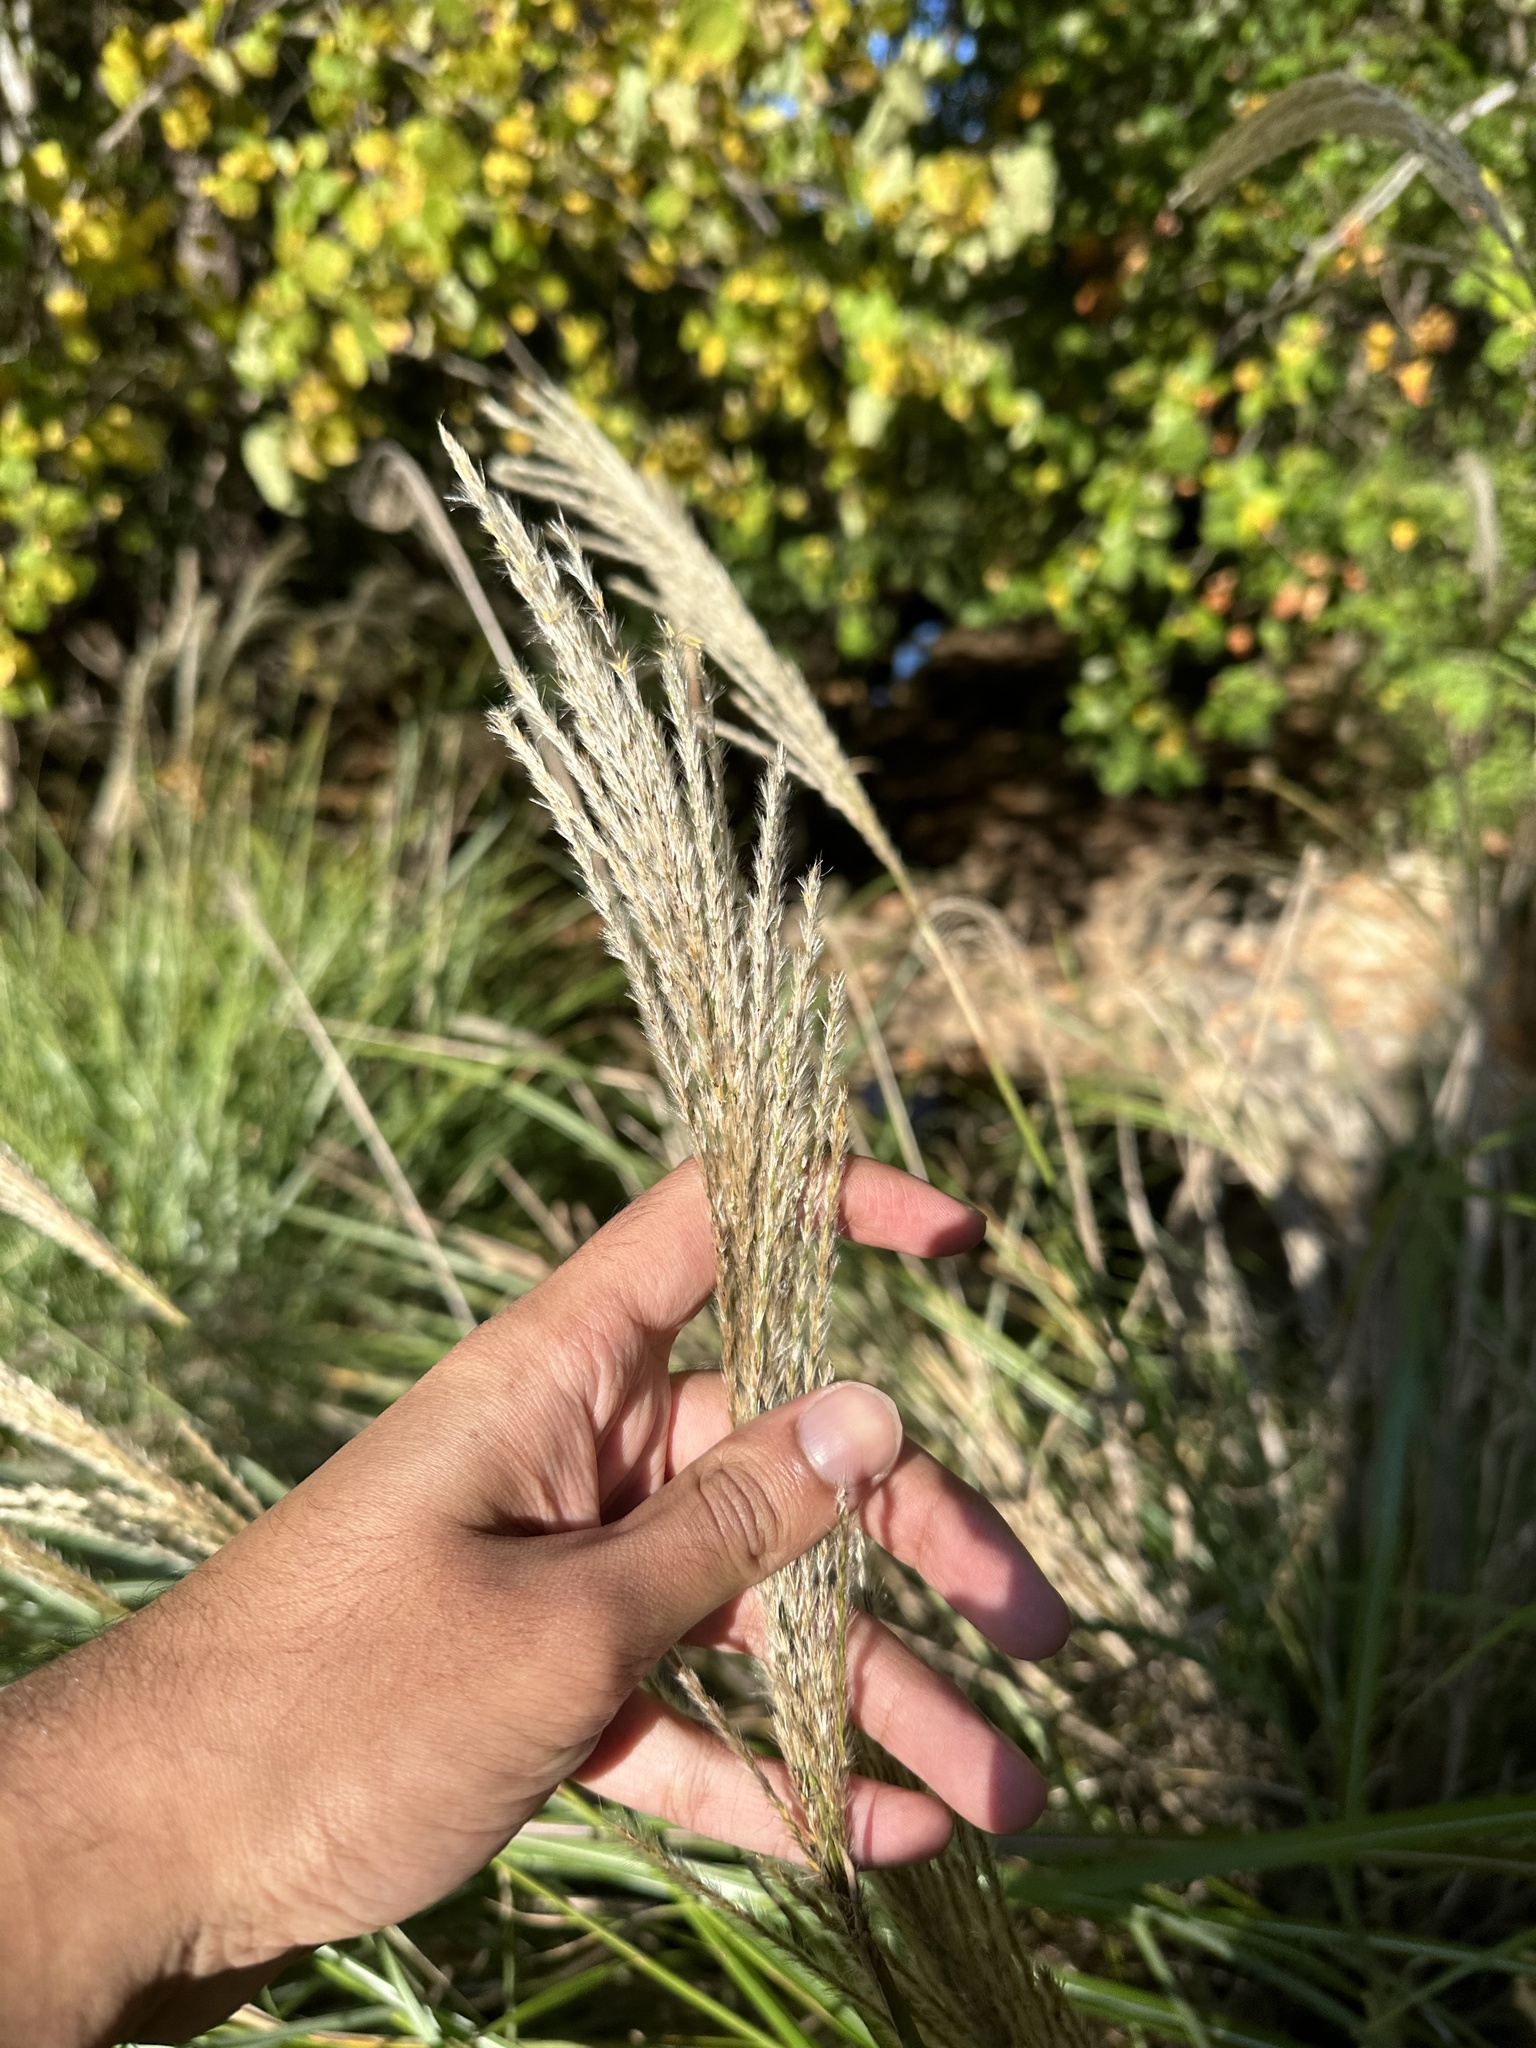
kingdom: Plantae
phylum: Tracheophyta
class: Liliopsida
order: Poales
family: Poaceae
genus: Miscanthus
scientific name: Miscanthus sinensis
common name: Chinese silvergrass
